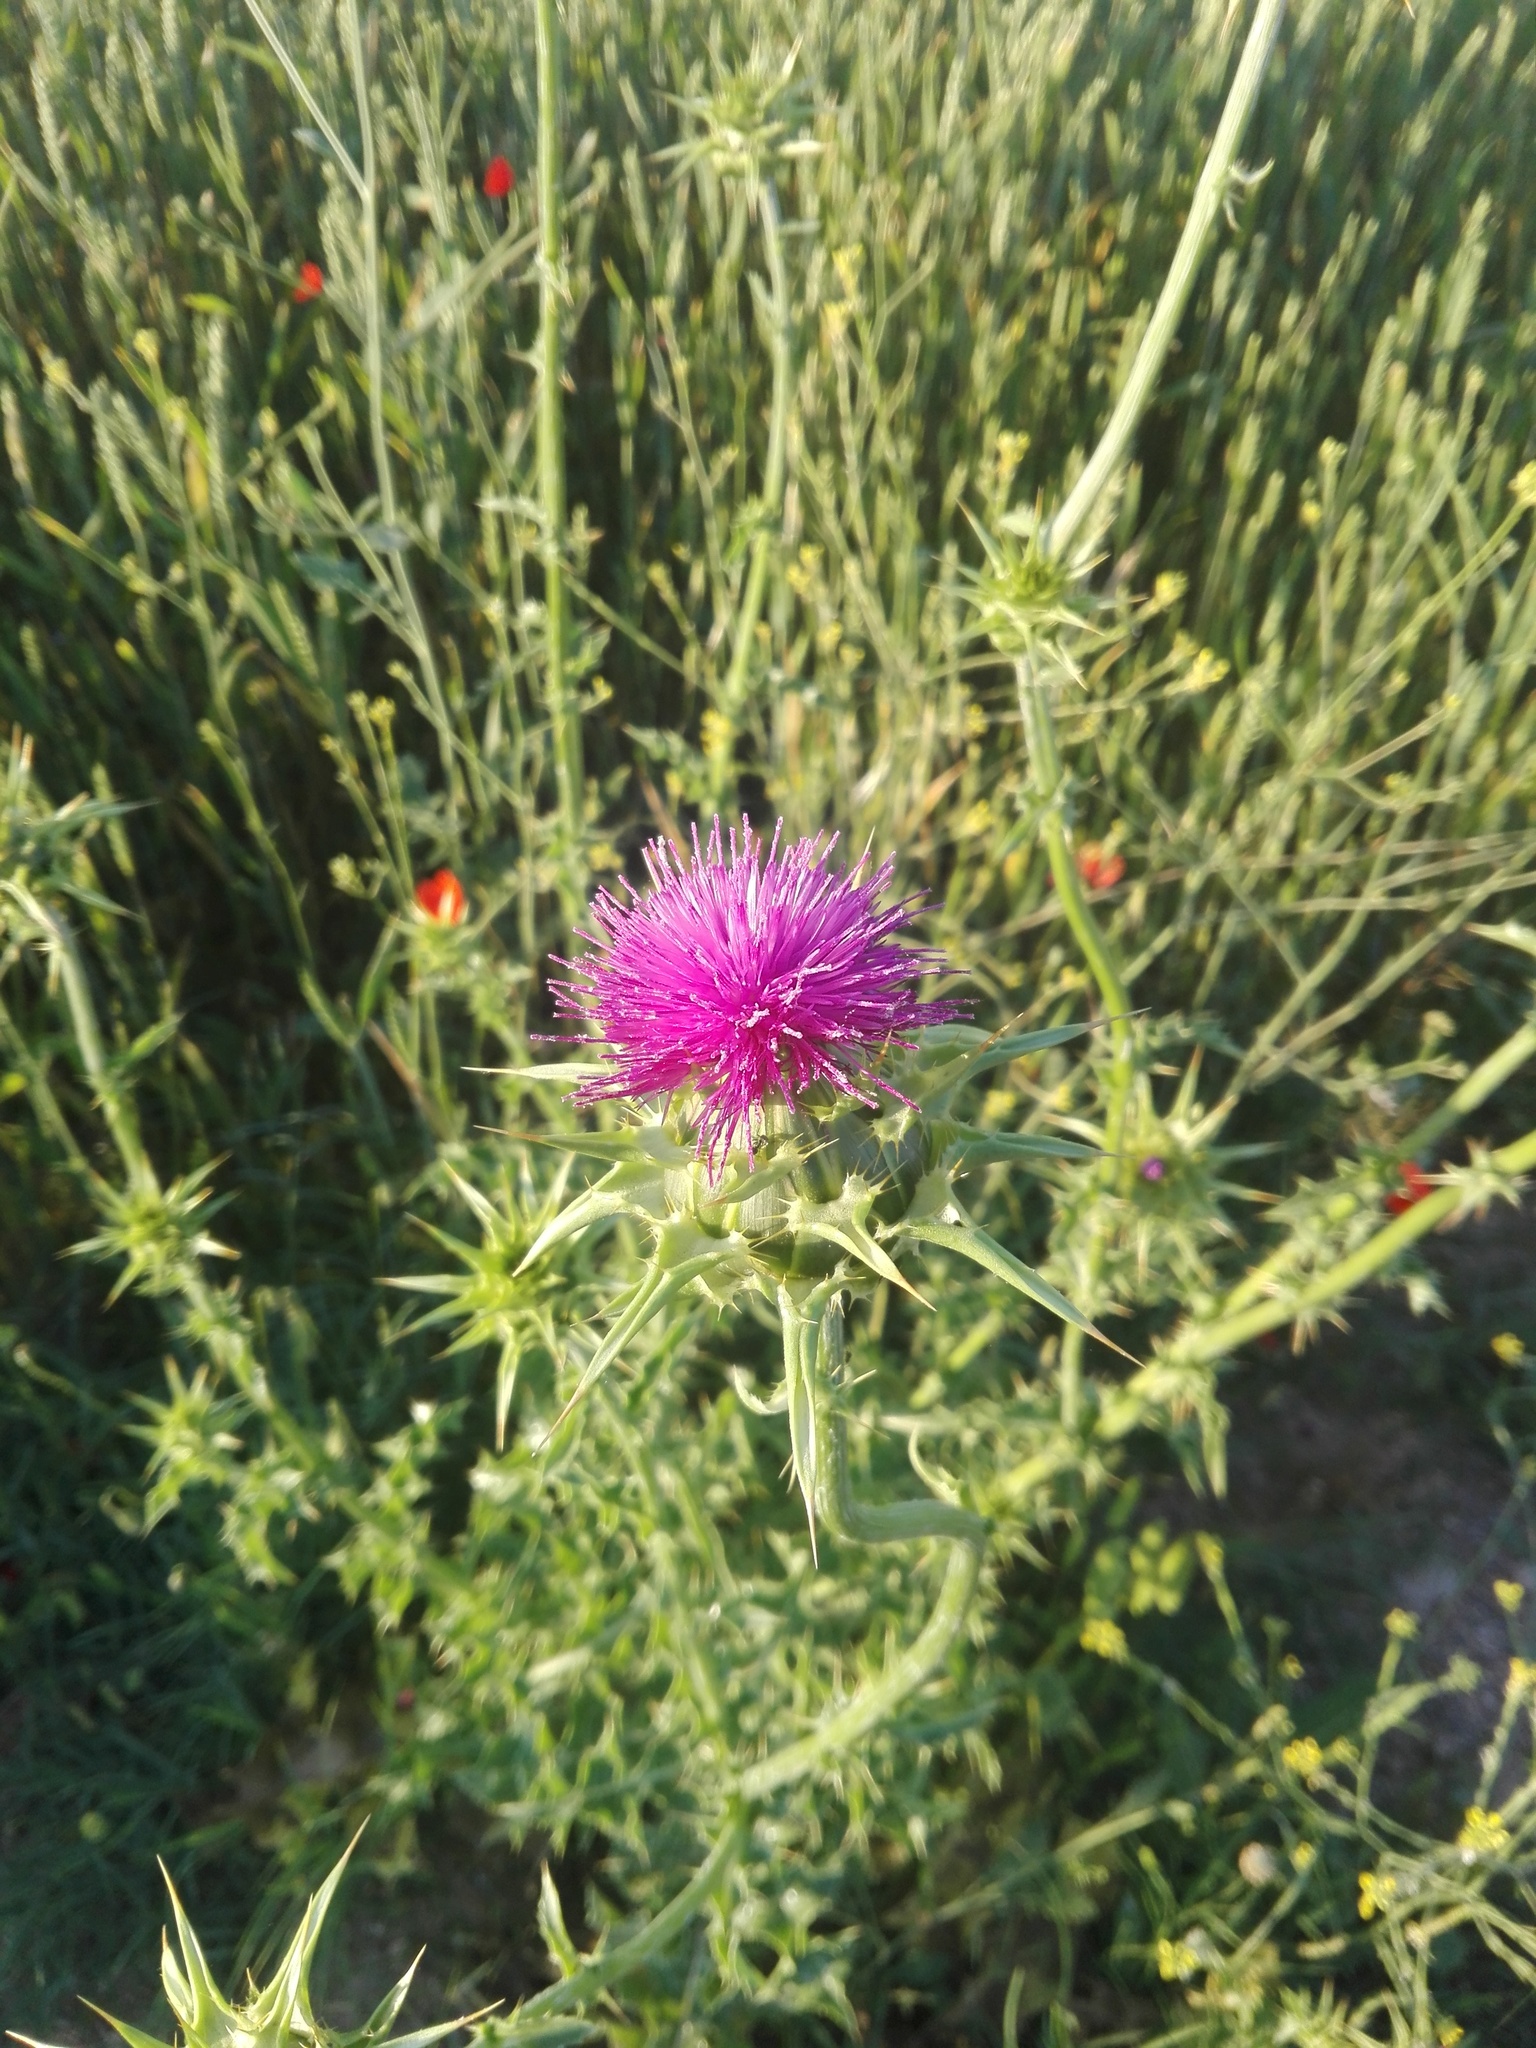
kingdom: Plantae
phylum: Tracheophyta
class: Magnoliopsida
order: Asterales
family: Asteraceae
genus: Silybum
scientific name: Silybum marianum
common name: Milk thistle
